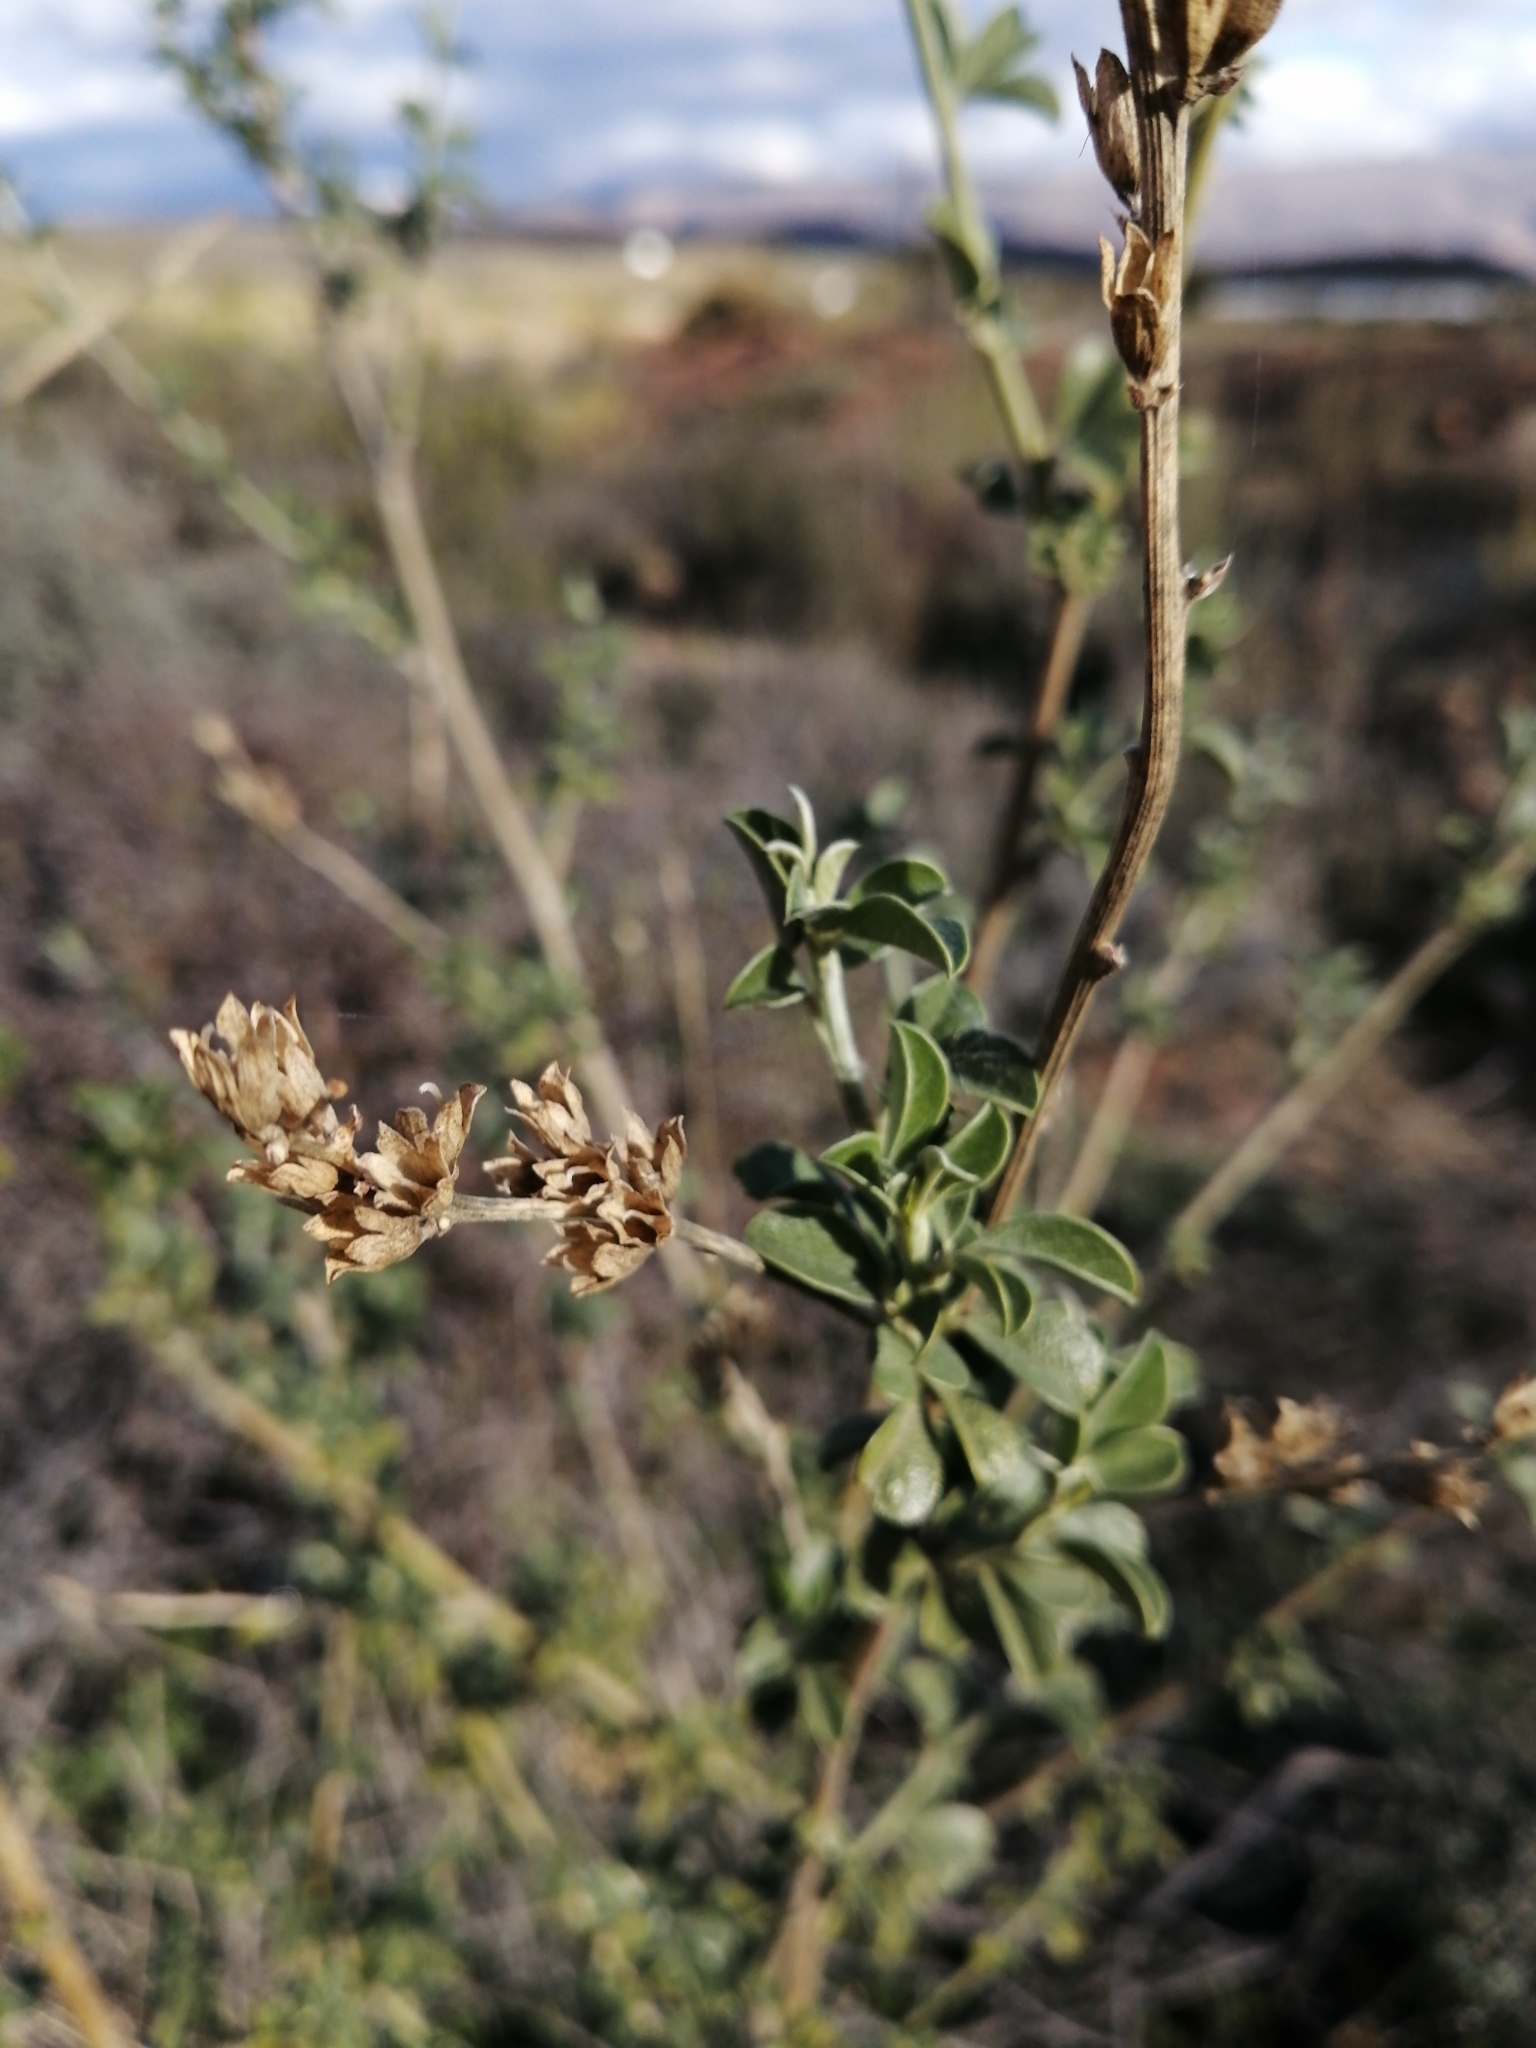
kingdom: Plantae
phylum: Tracheophyta
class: Magnoliopsida
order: Fabales
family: Fabaceae
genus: Psoralea
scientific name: Psoralea striata
